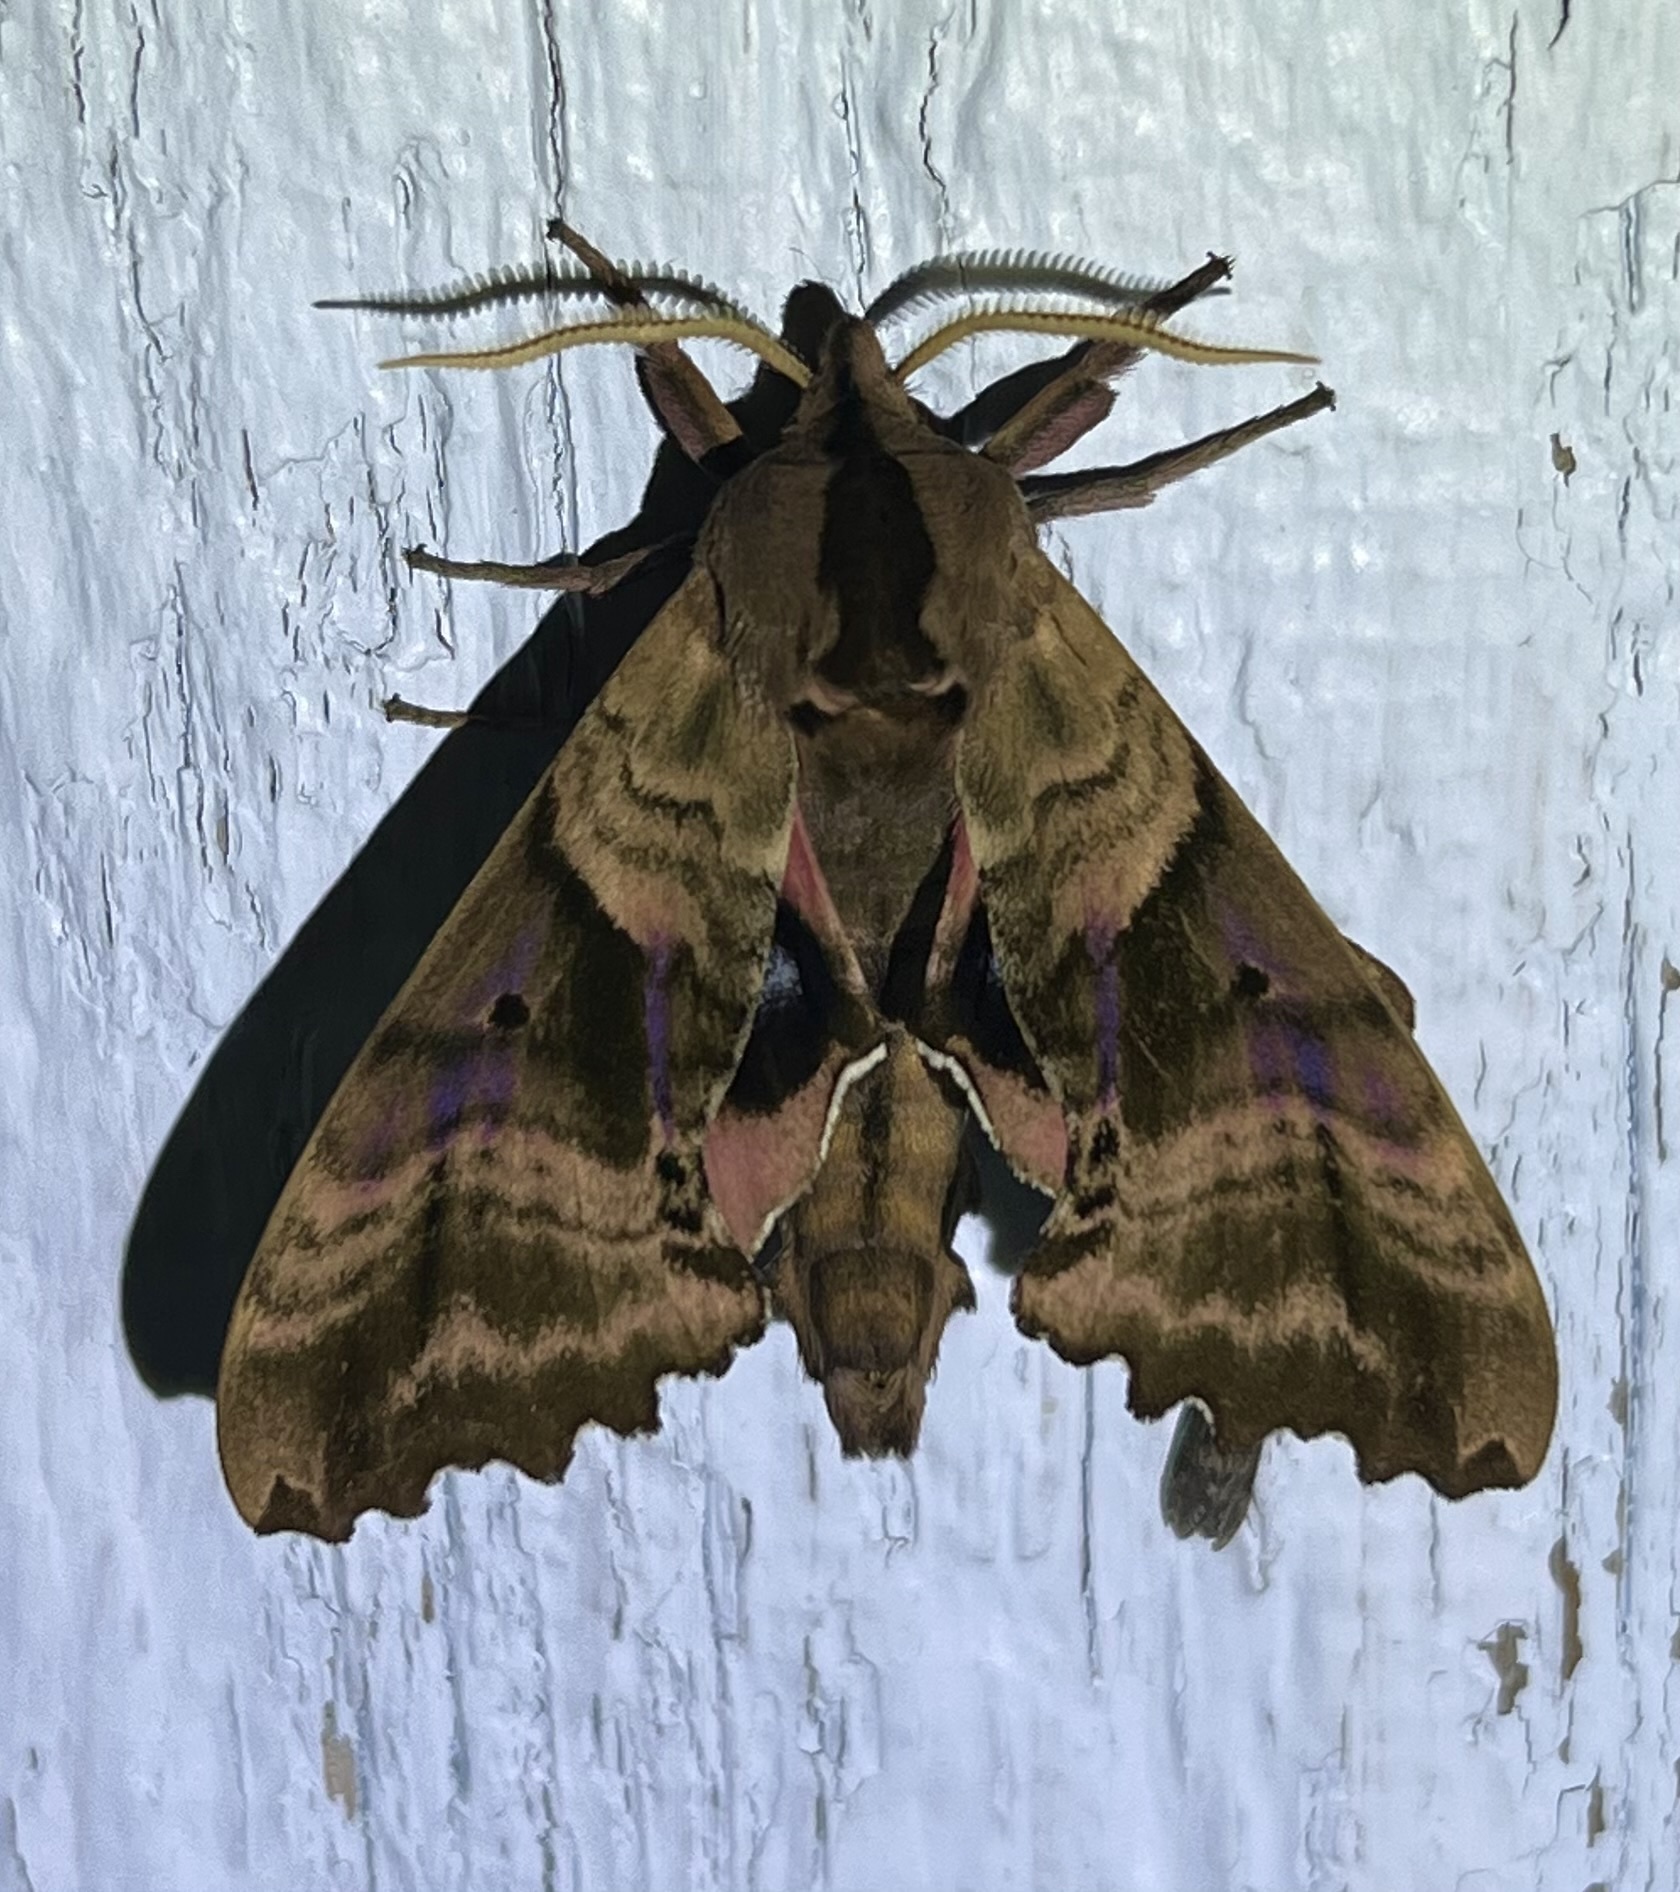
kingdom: Animalia
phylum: Arthropoda
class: Insecta
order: Lepidoptera
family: Sphingidae
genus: Paonias
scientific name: Paonias excaecata
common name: Blind-eyed sphinx
